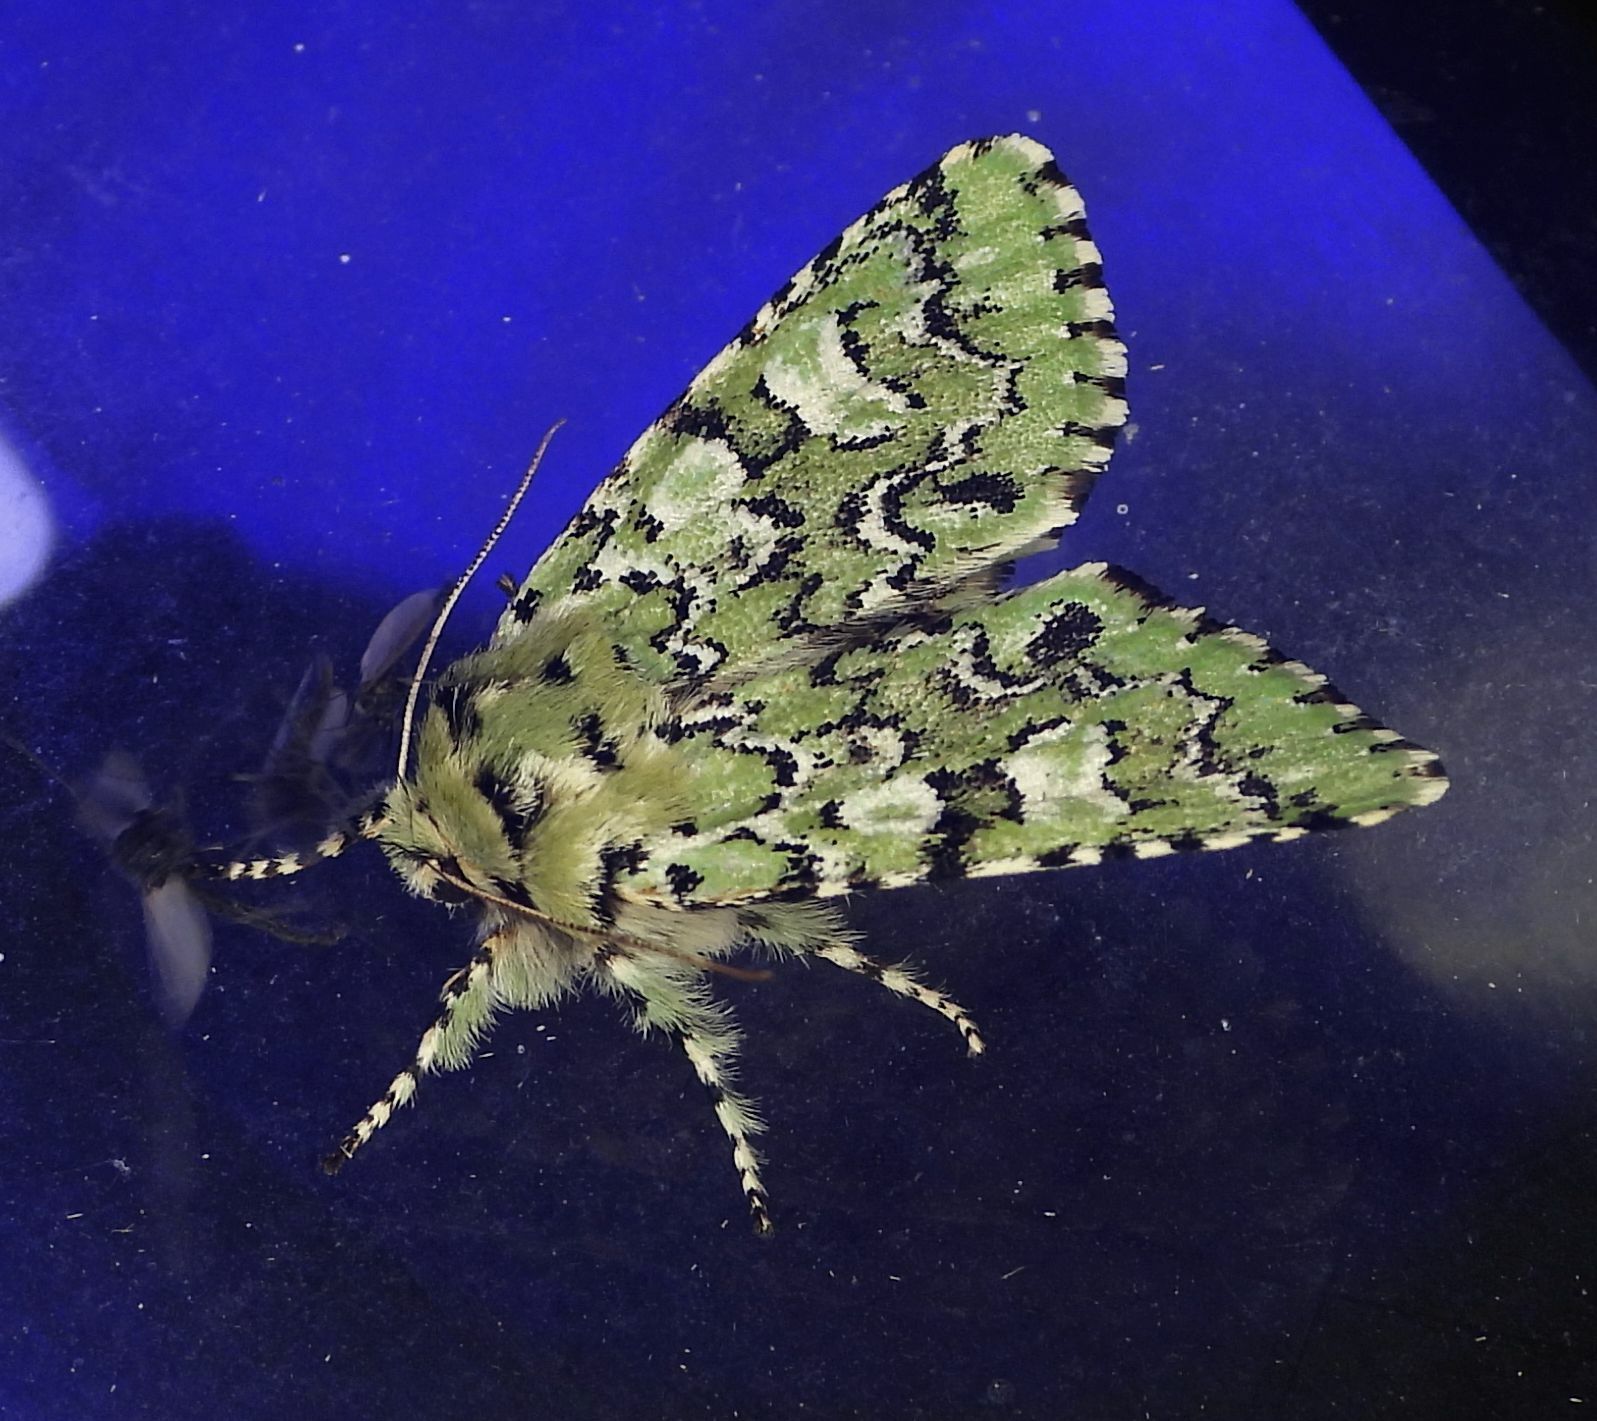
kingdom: Animalia
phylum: Arthropoda
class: Insecta
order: Lepidoptera
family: Noctuidae
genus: Feralia
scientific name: Feralia jocosa
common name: Joker
